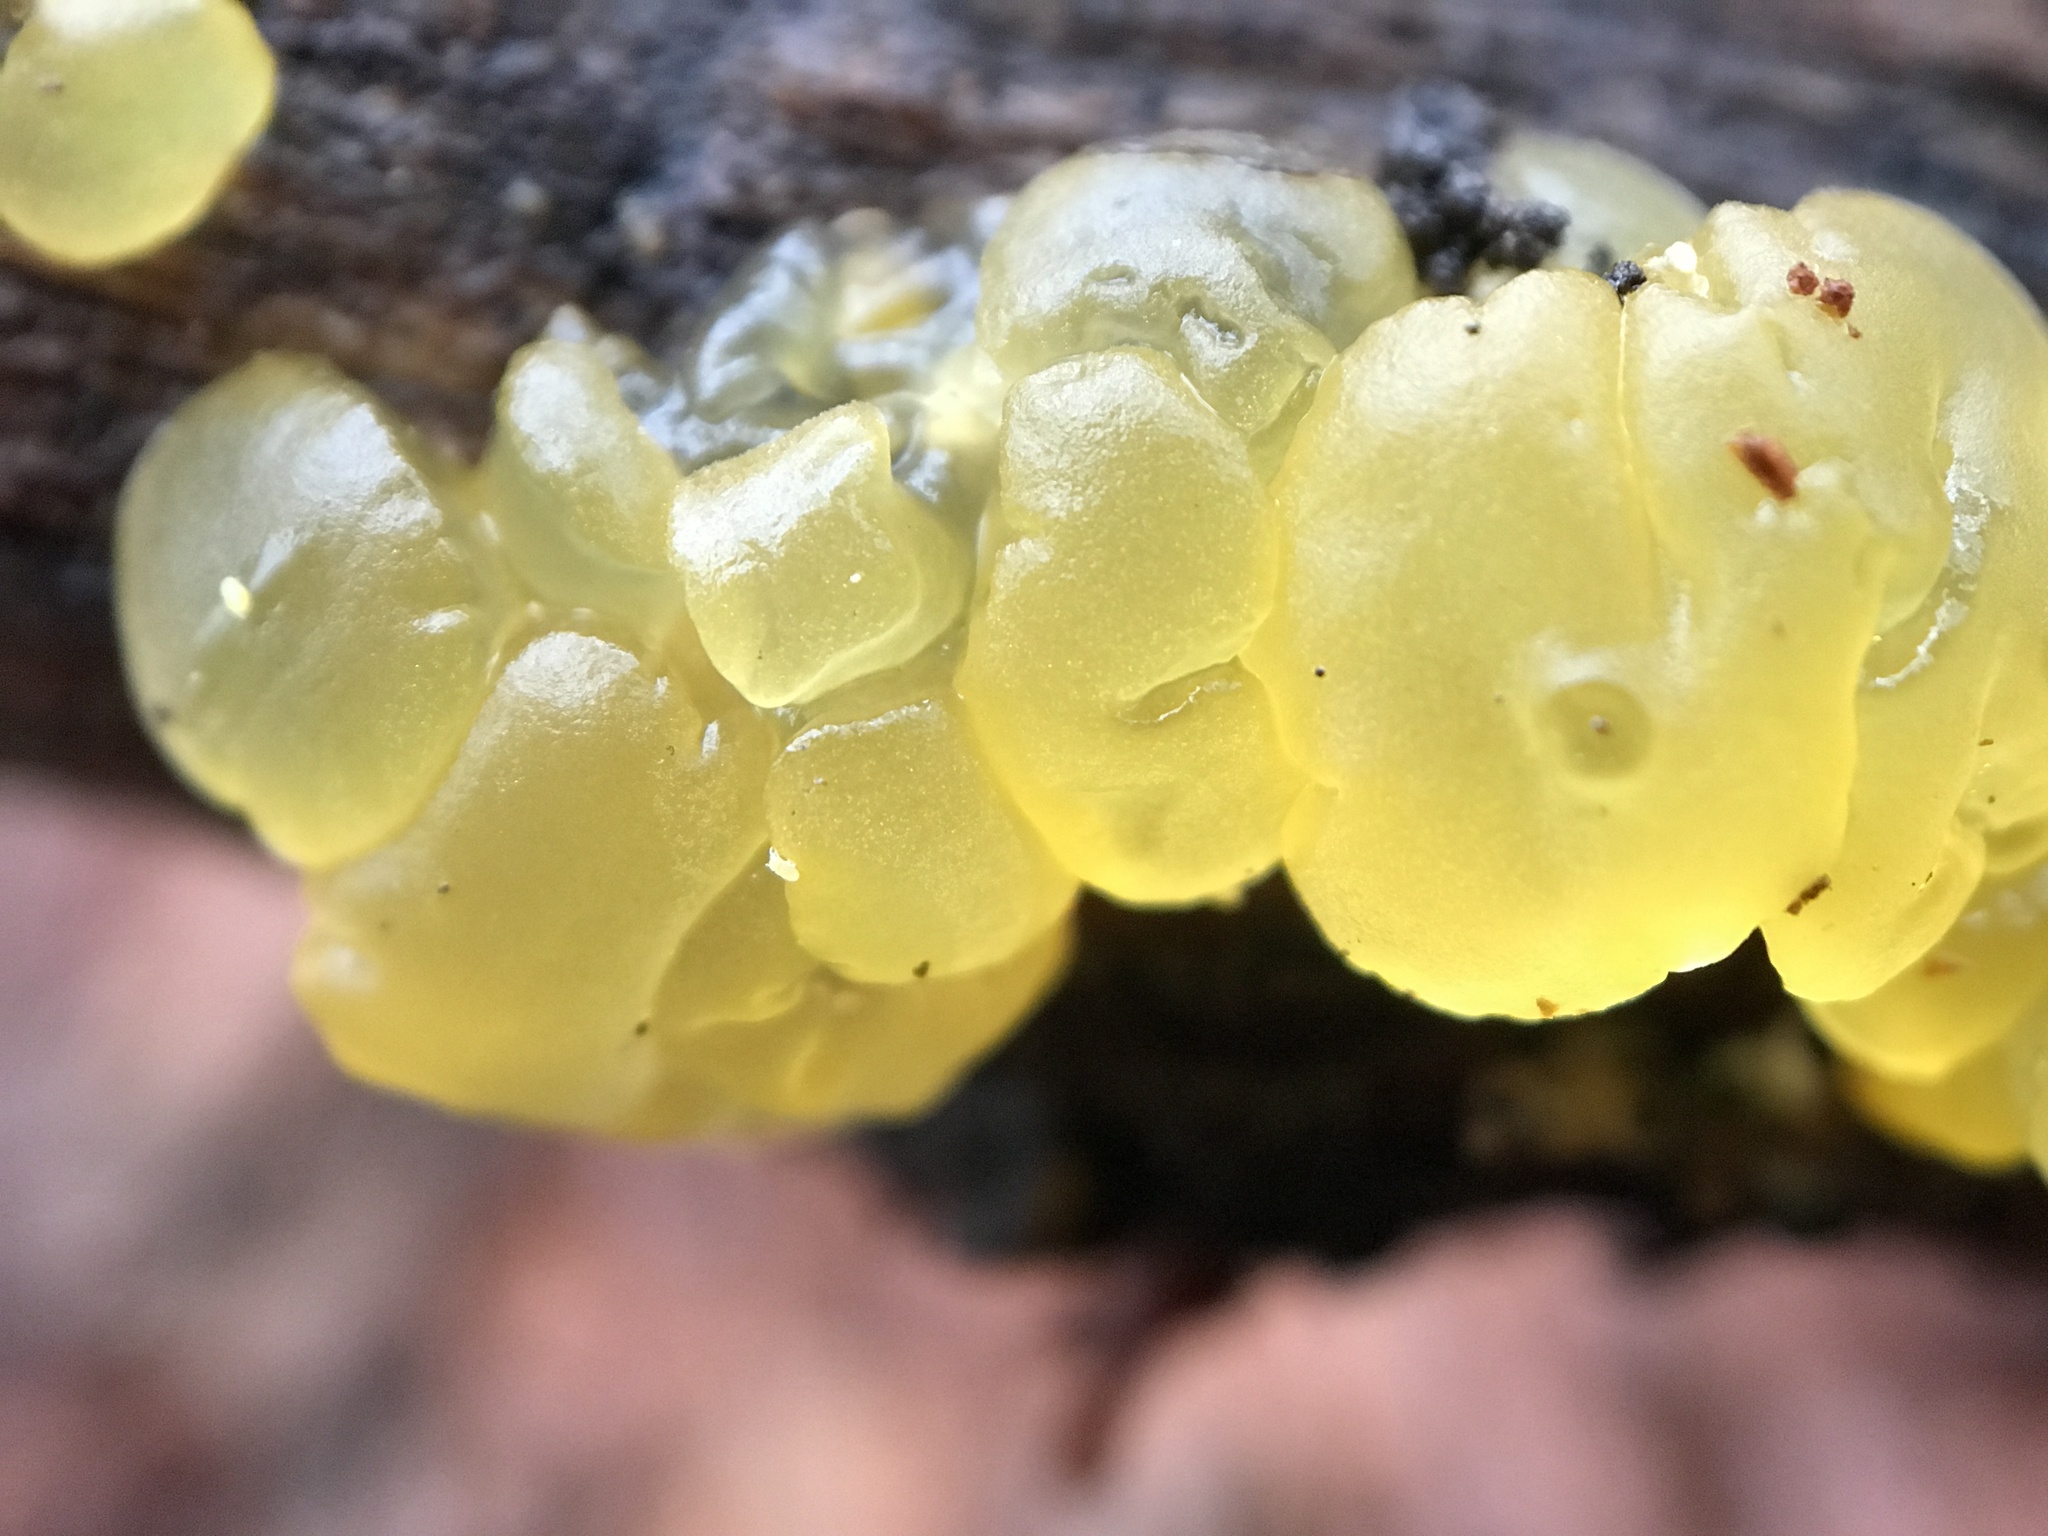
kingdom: Fungi
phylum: Basidiomycota
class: Dacrymycetes
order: Dacrymycetales
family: Dacrymycetaceae
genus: Dacrymyces
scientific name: Dacrymyces capitatus
